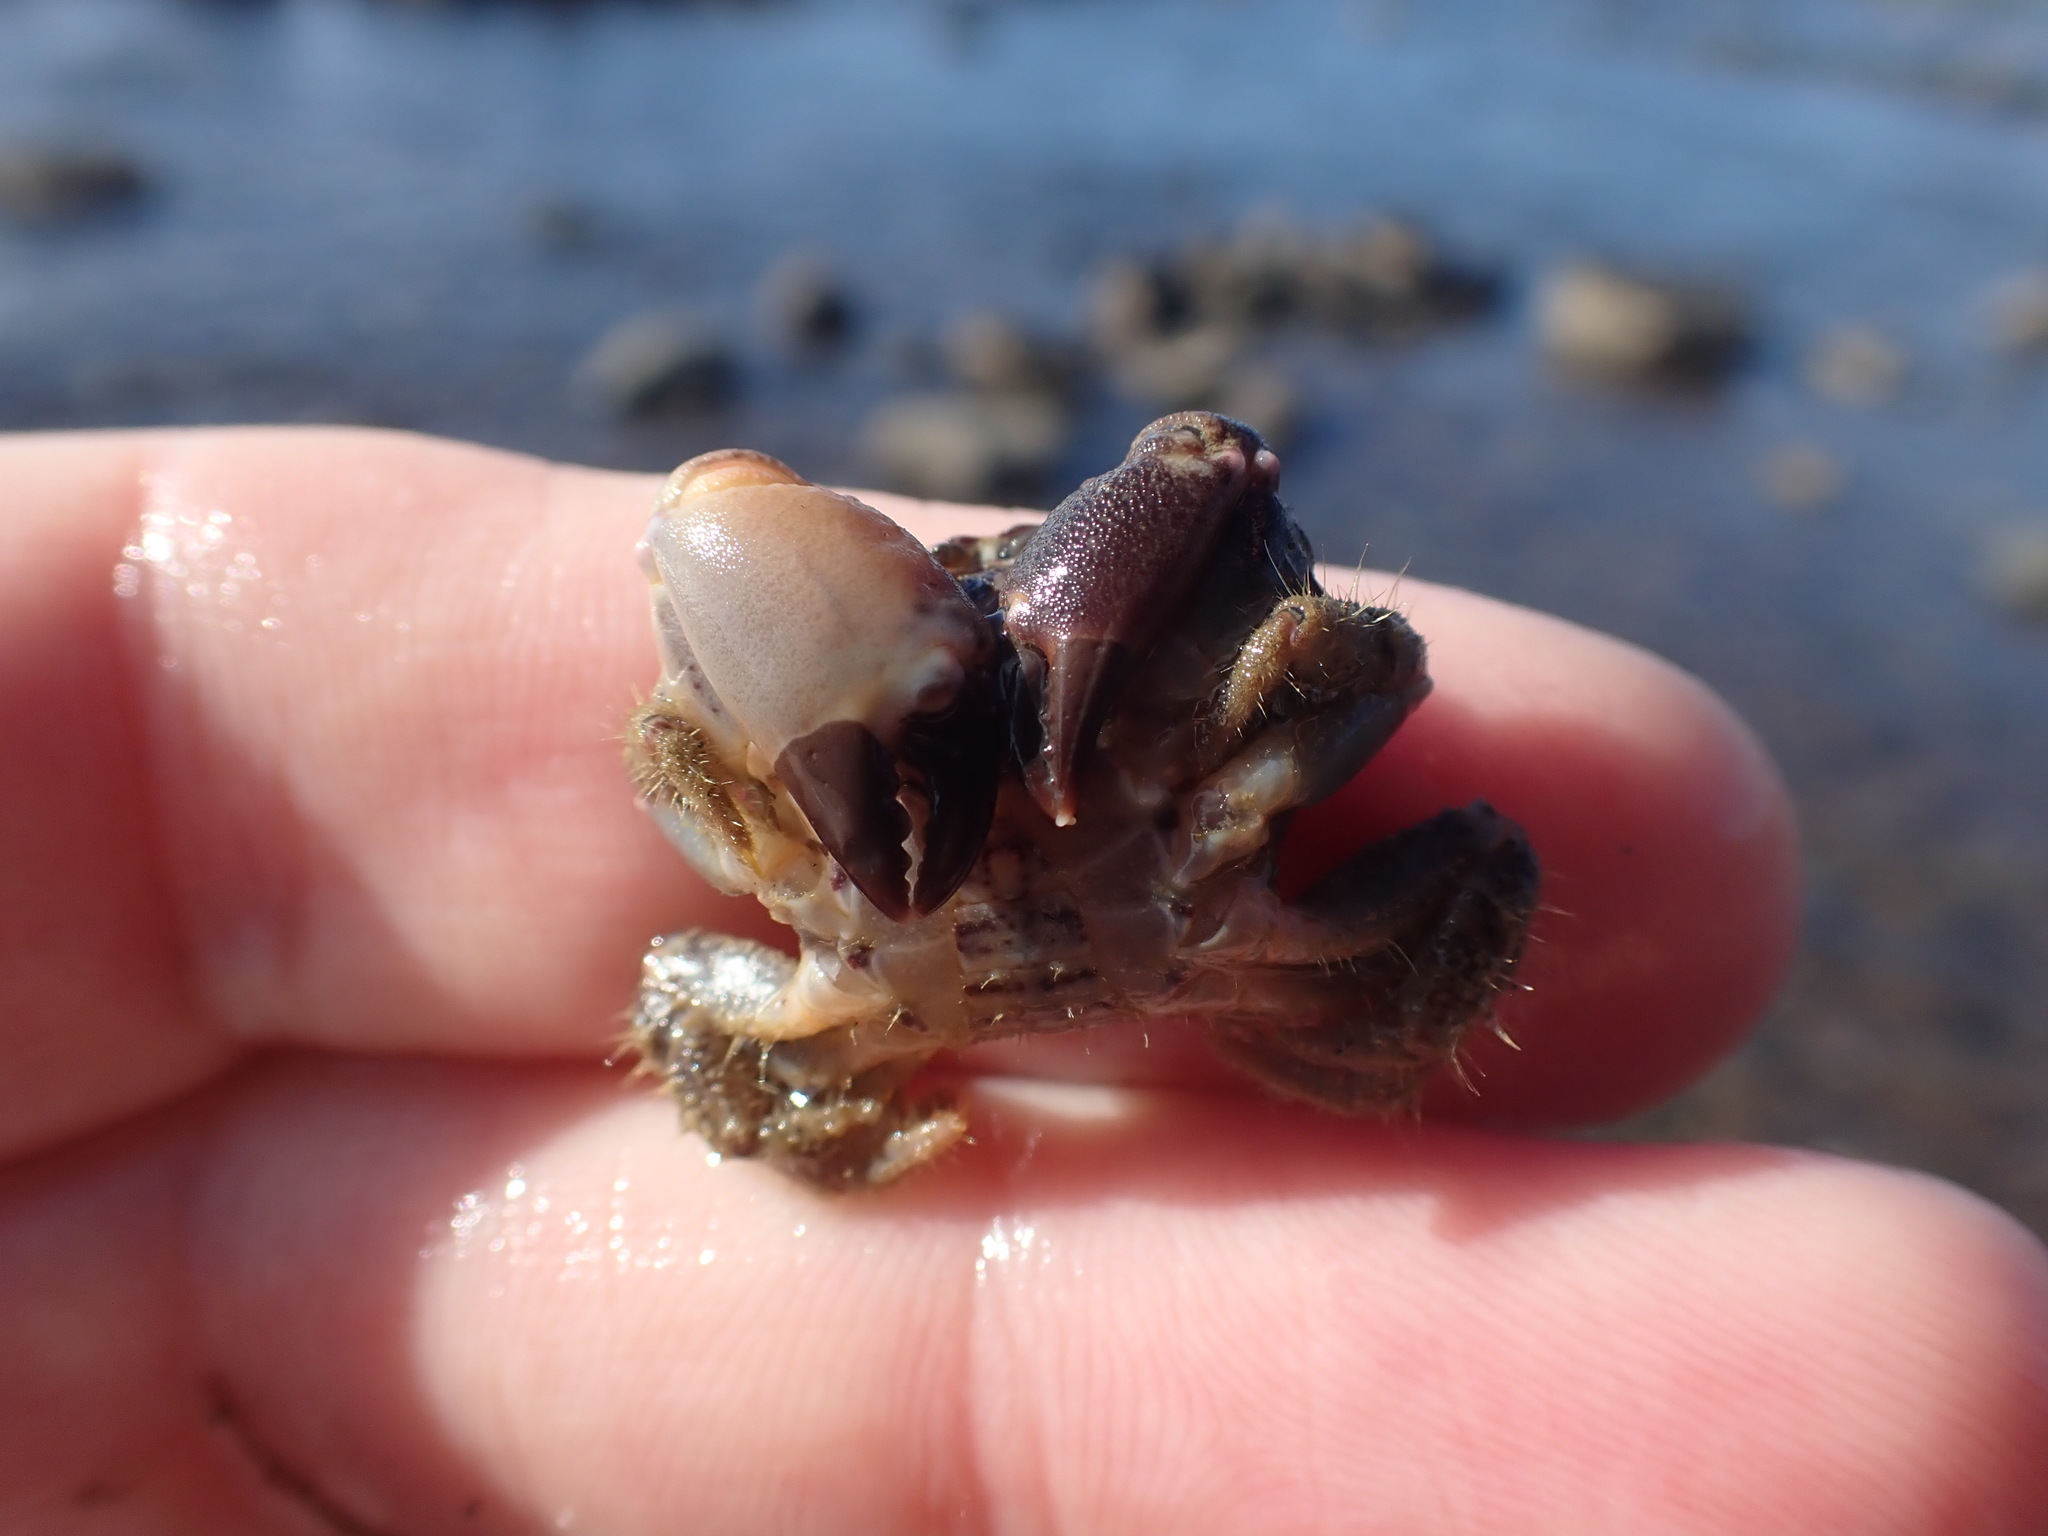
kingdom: Animalia
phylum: Arthropoda
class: Malacostraca
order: Decapoda
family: Oziidae
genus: Ozius
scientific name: Ozius deplanatus
